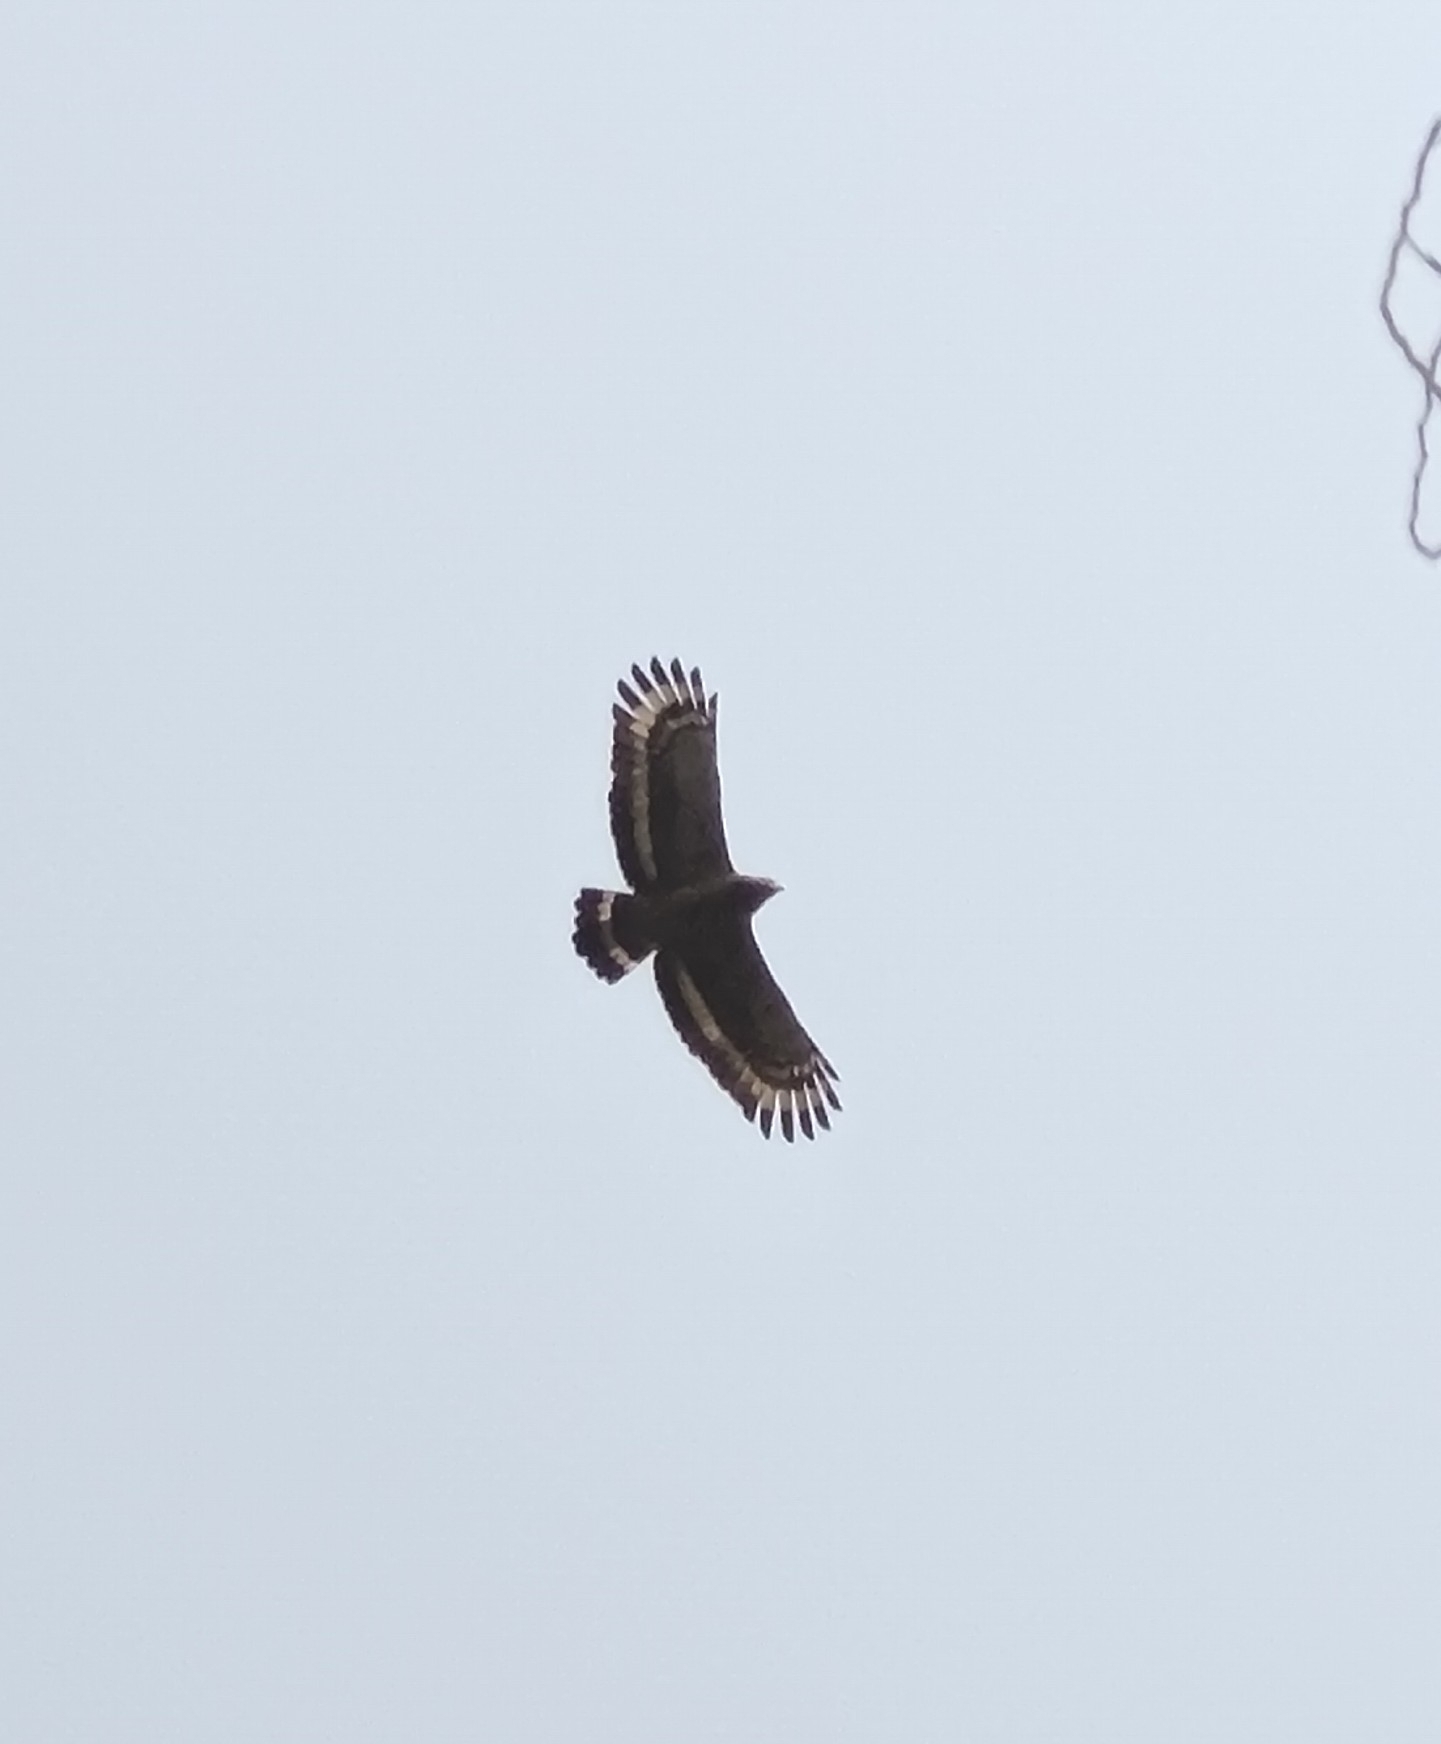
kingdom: Animalia
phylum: Chordata
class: Aves
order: Accipitriformes
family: Accipitridae
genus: Spilornis
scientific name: Spilornis cheela
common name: Crested serpent eagle
